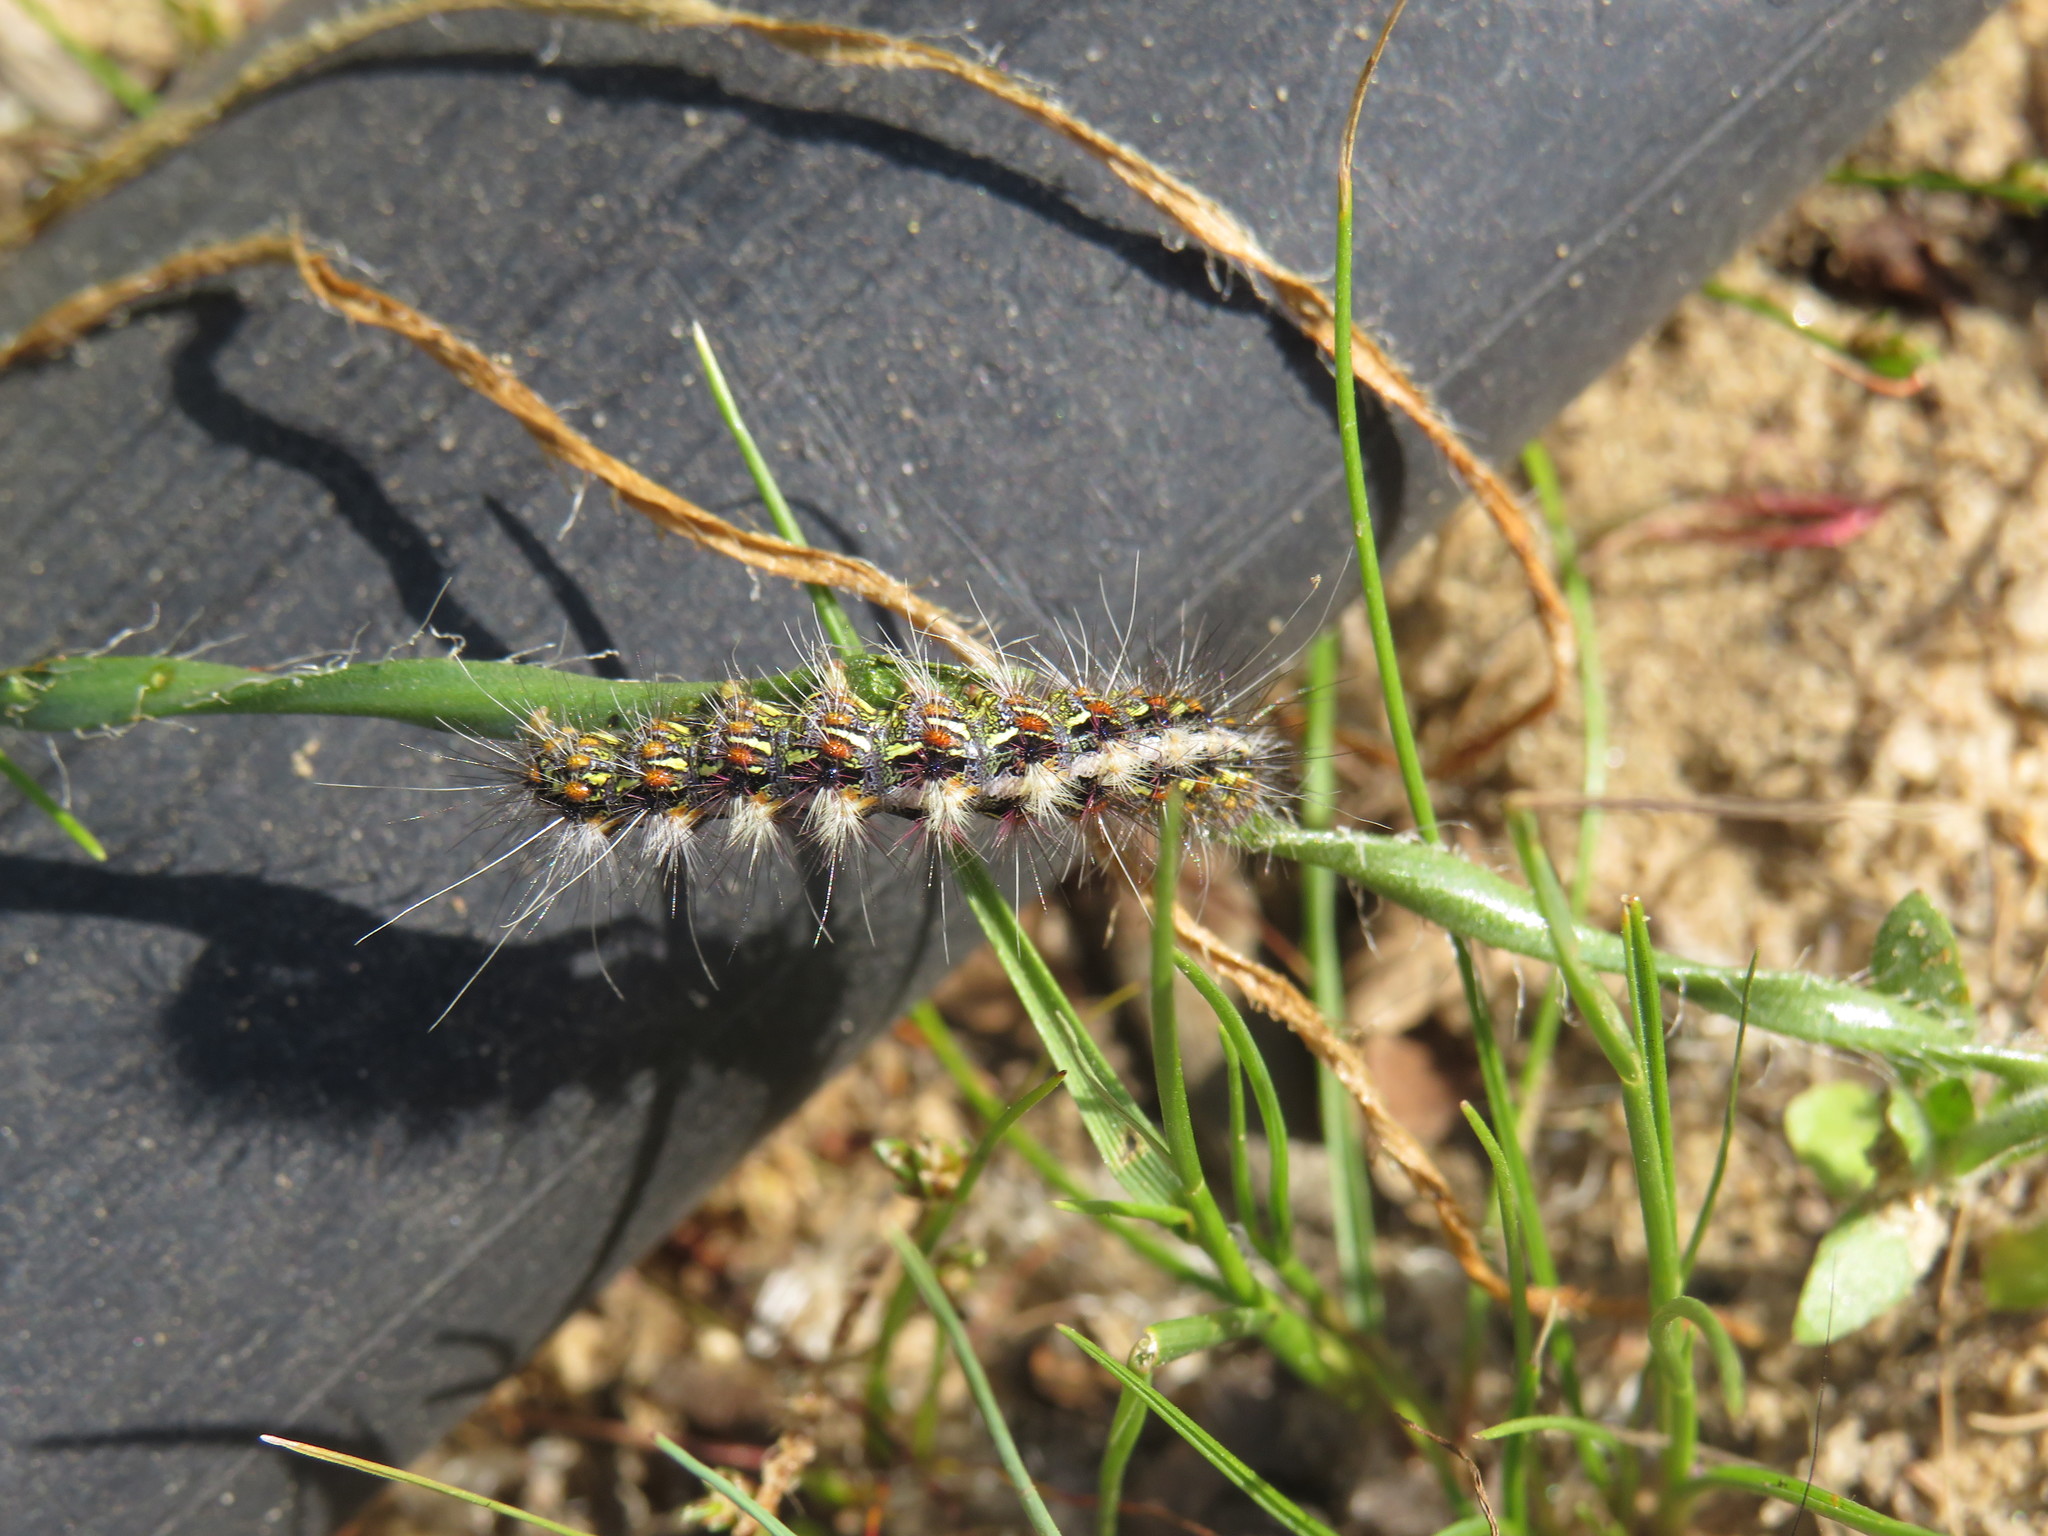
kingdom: Animalia
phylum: Arthropoda
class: Insecta
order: Lepidoptera
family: Erebidae
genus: Paralacydes
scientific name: Paralacydes vocula
